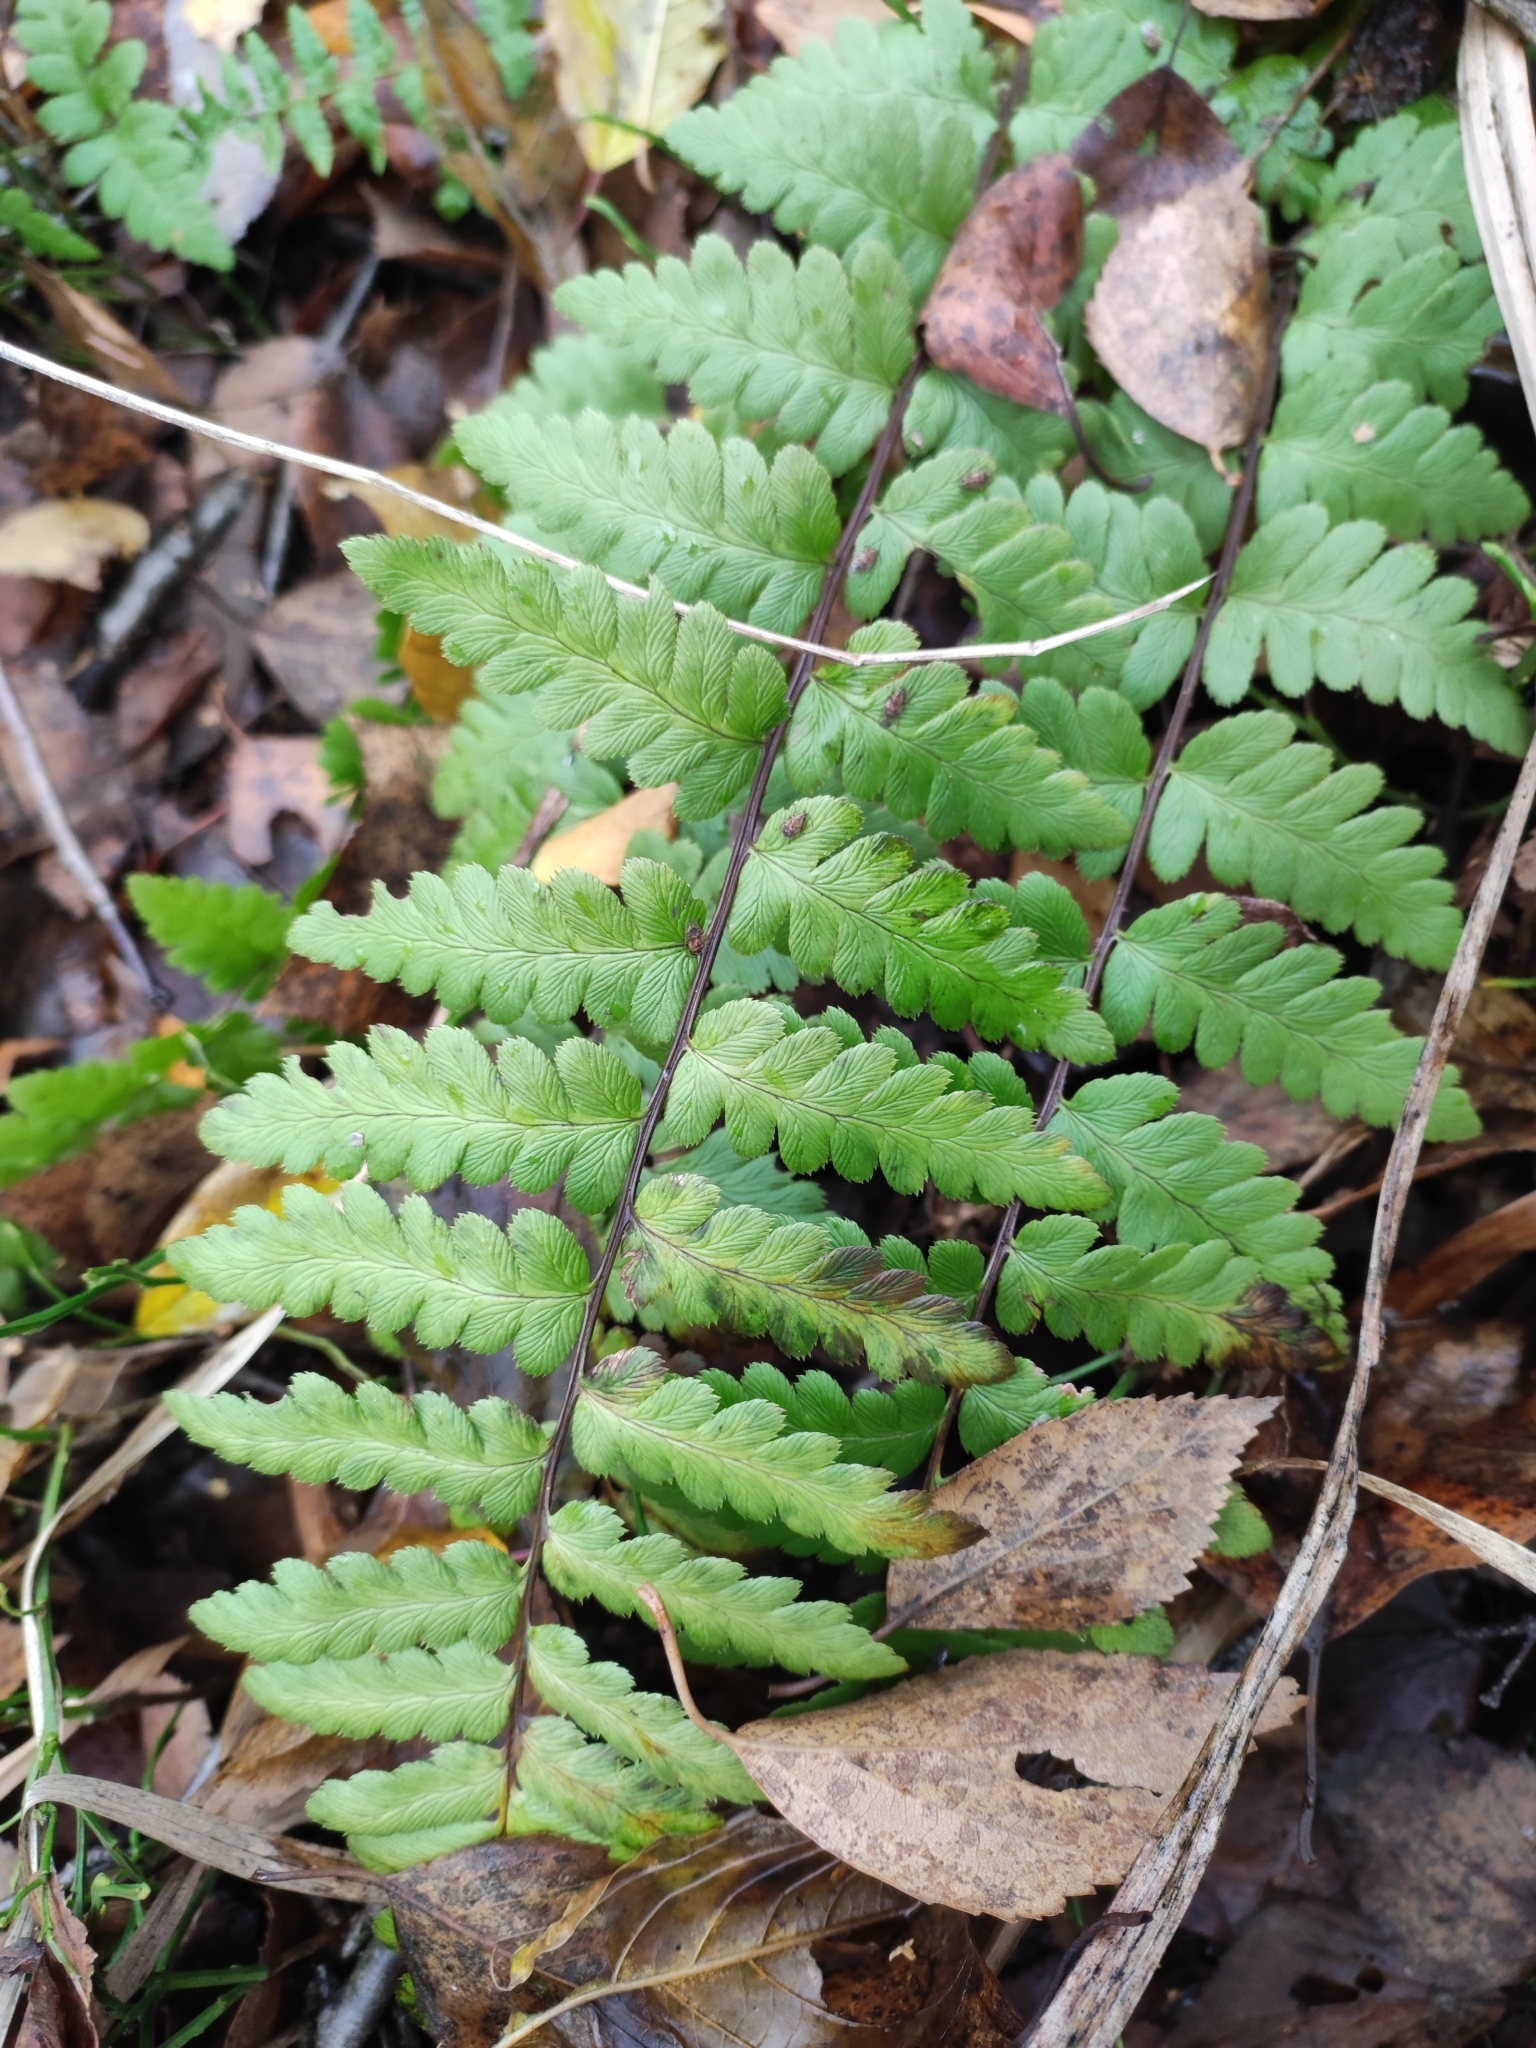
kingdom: Plantae
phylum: Tracheophyta
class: Polypodiopsida
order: Polypodiales
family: Dryopteridaceae
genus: Dryopteris
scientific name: Dryopteris cristata
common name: Crested wood fern
